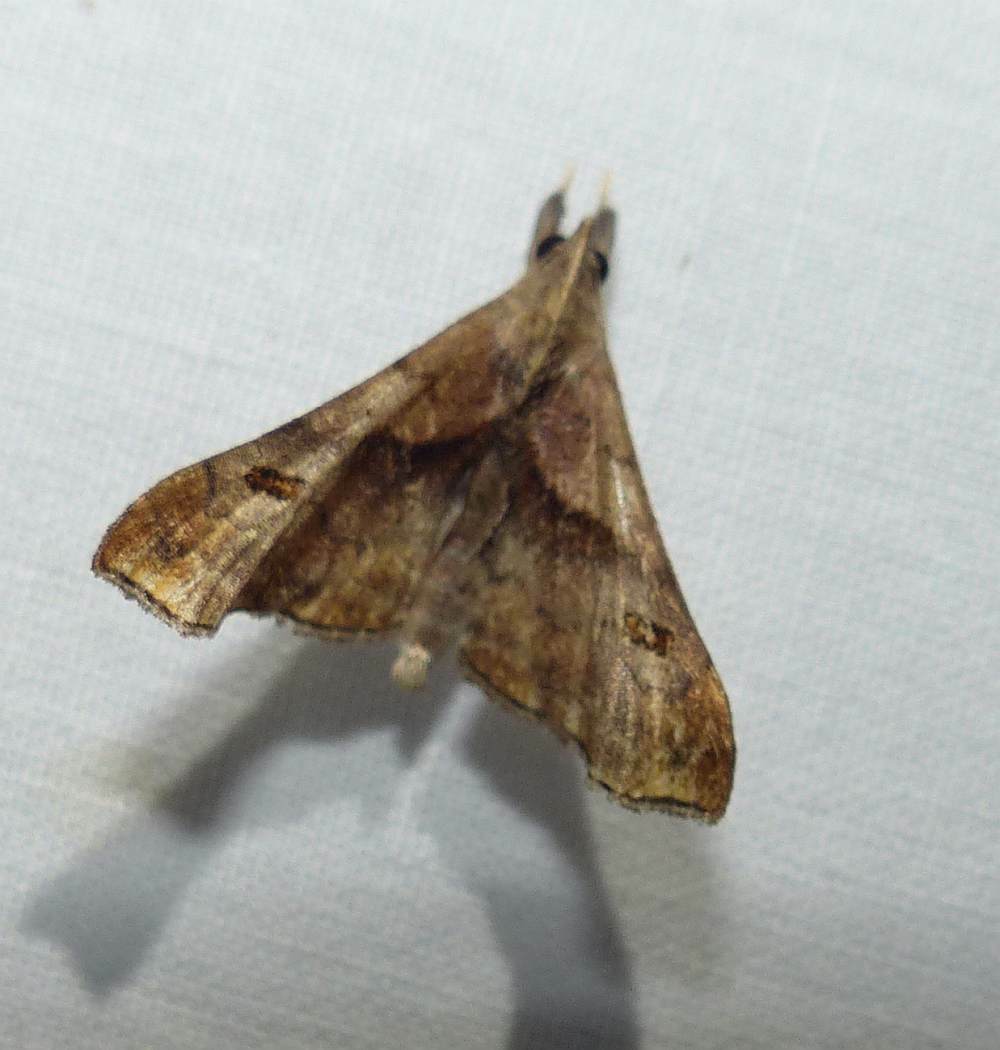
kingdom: Animalia
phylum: Arthropoda
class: Insecta
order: Lepidoptera
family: Erebidae
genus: Palthis
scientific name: Palthis angulalis
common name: Dark-spotted palthis moth
